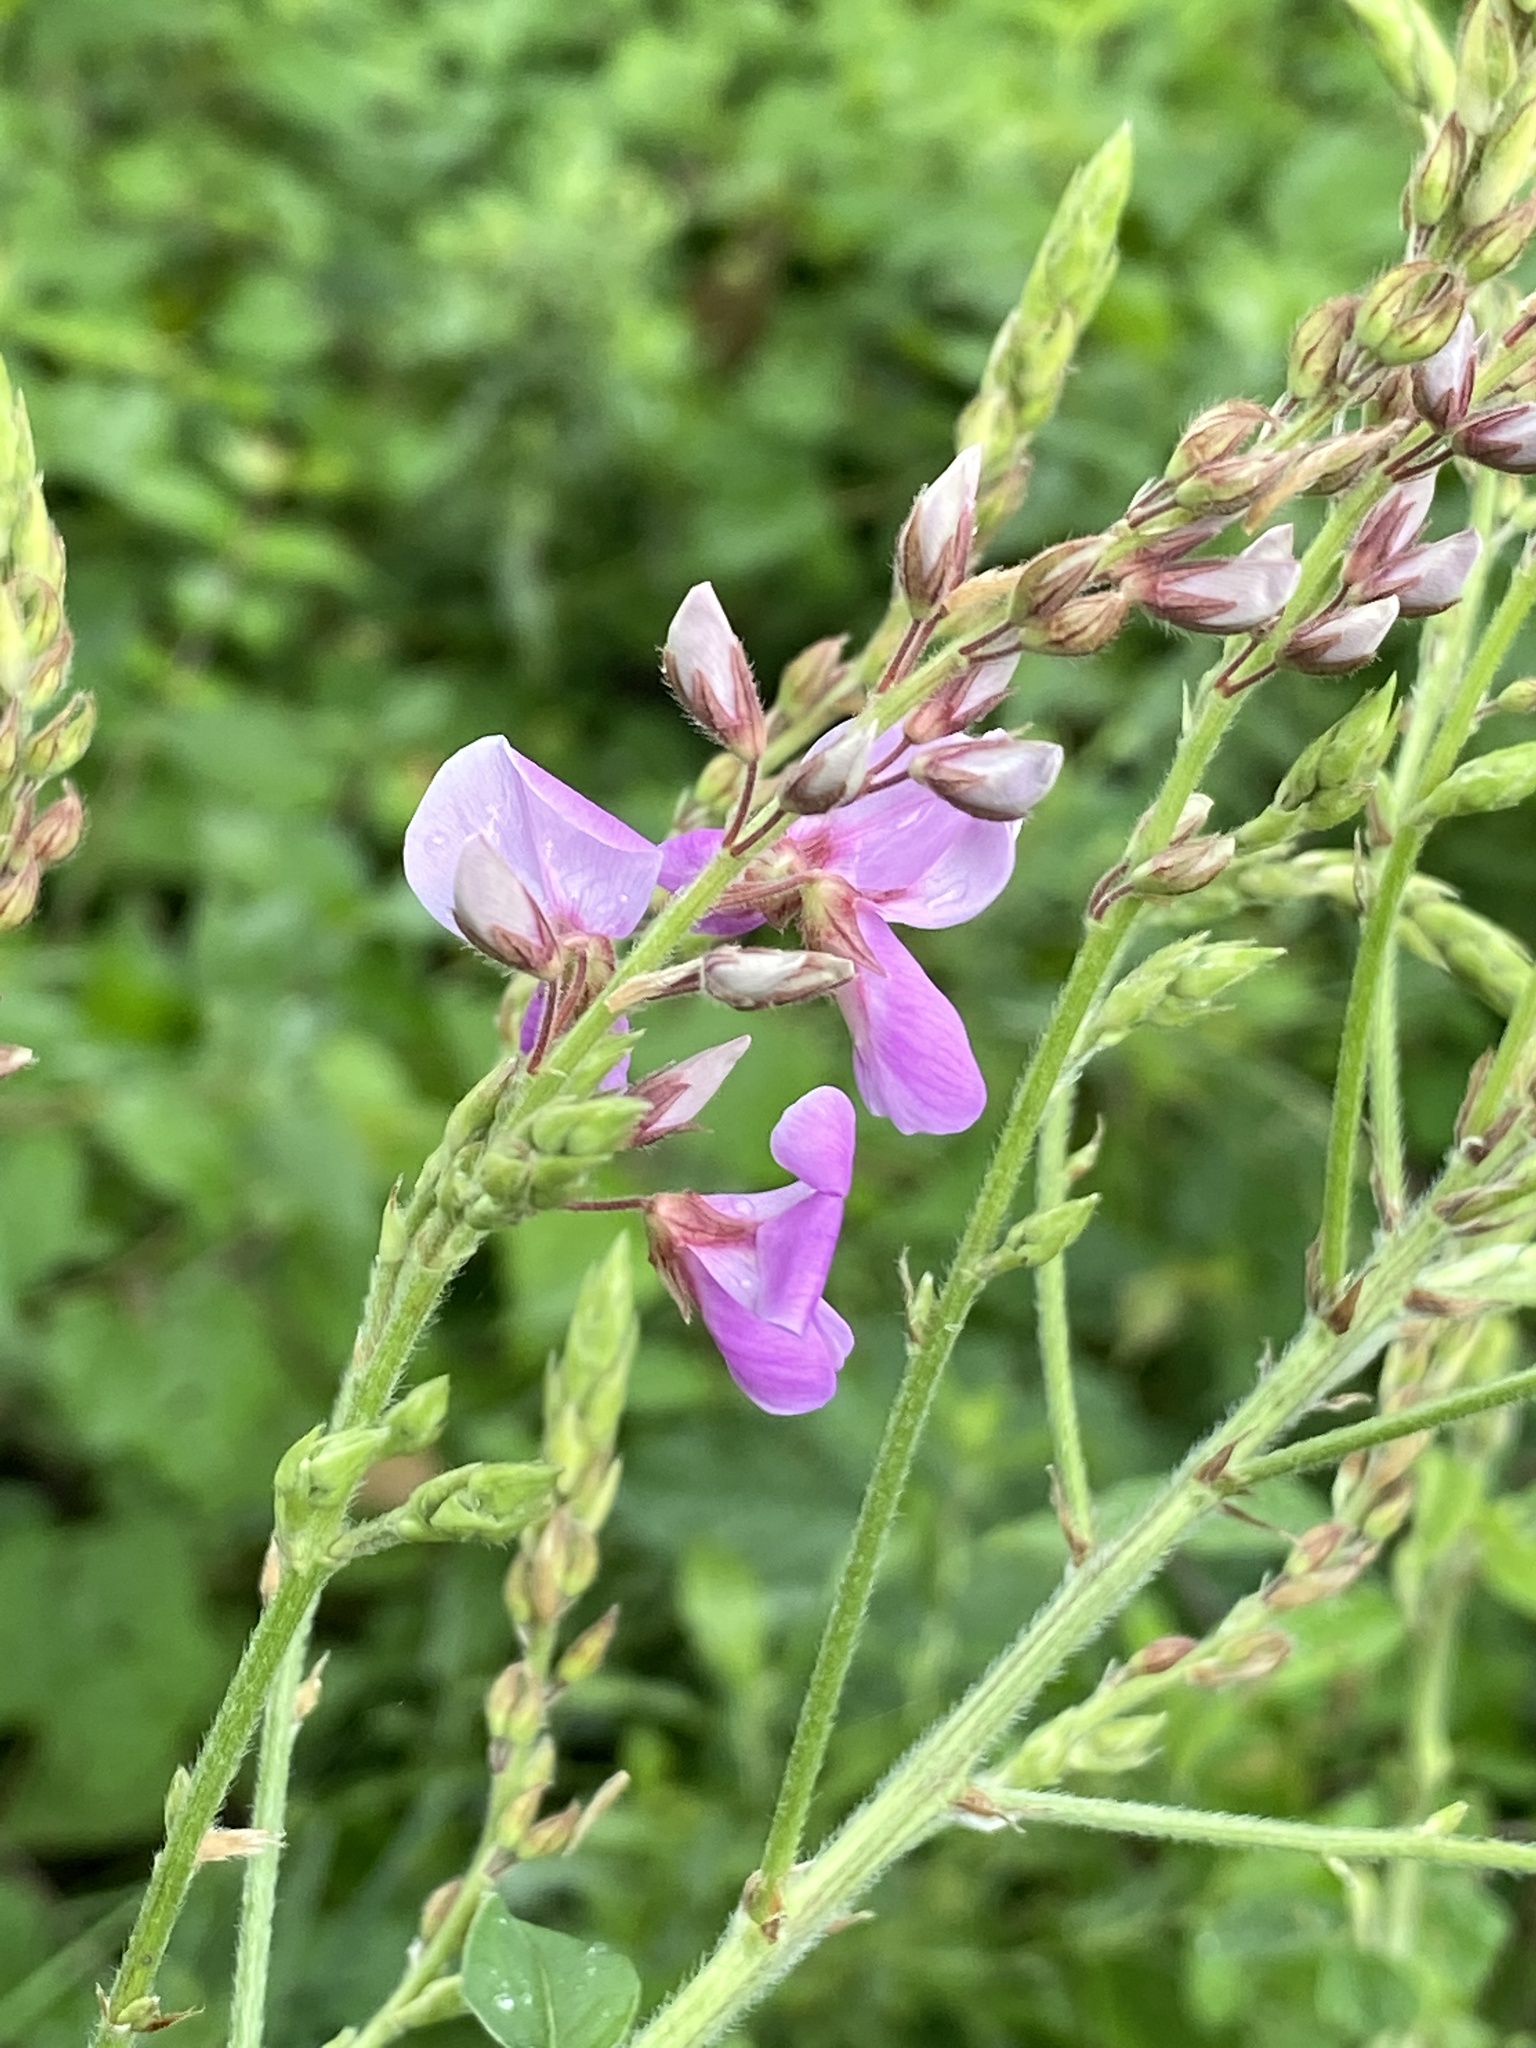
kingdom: Plantae
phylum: Tracheophyta
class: Magnoliopsida
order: Fabales
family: Fabaceae
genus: Desmodium
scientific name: Desmodium canadense
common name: Canada tick-trefoil
